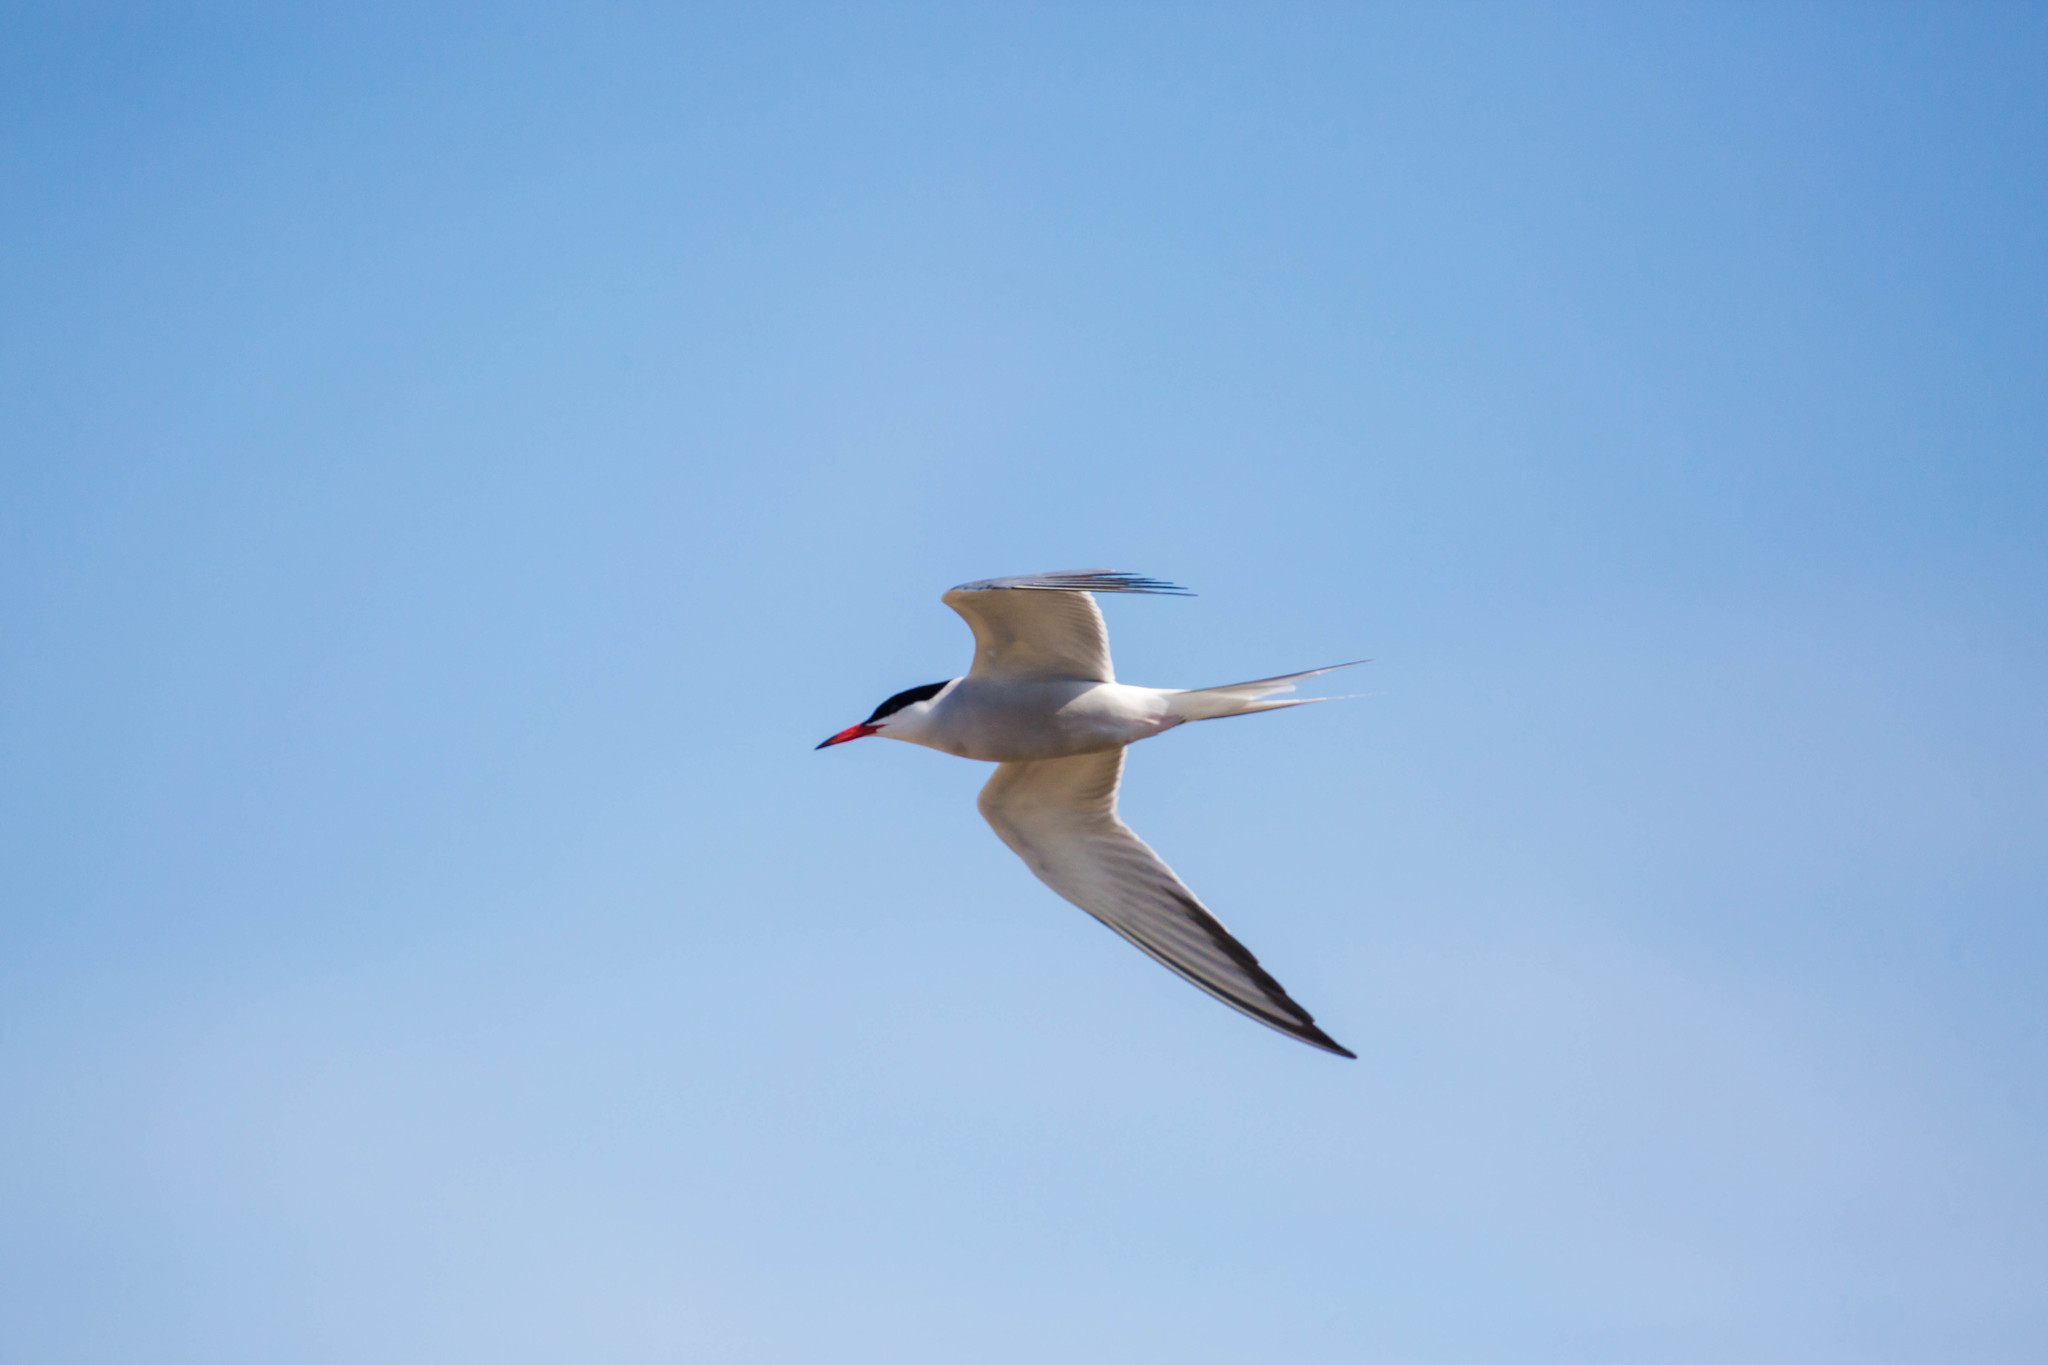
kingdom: Animalia
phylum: Chordata
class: Aves
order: Charadriiformes
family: Laridae
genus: Sterna
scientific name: Sterna hirundo
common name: Common tern
